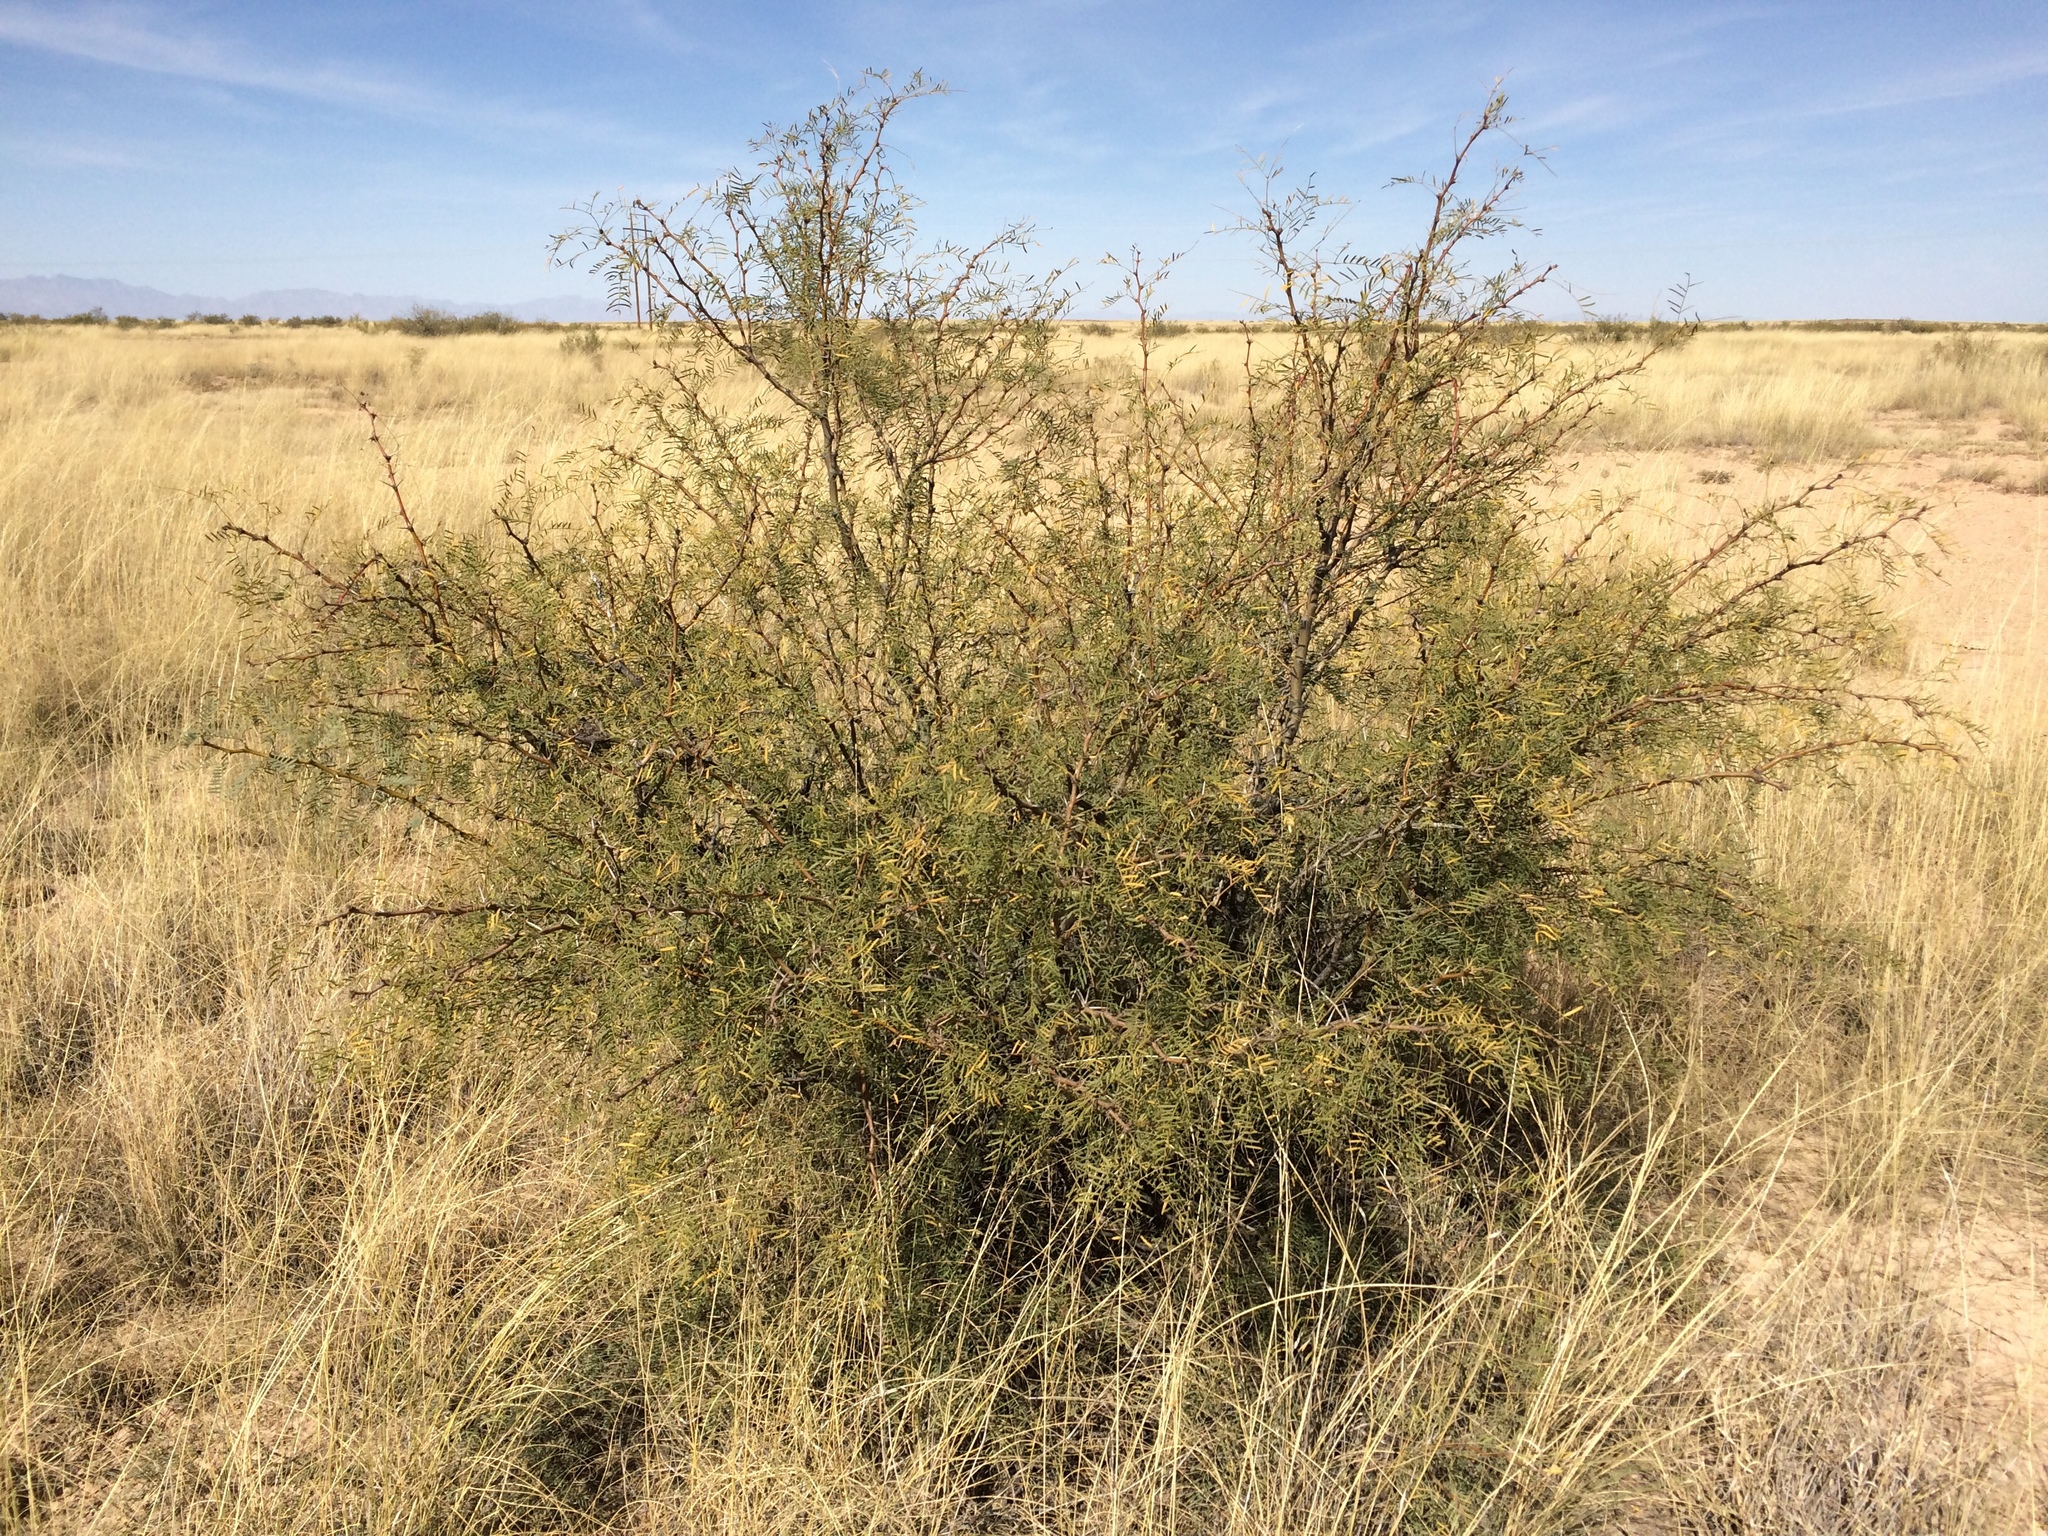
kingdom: Plantae
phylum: Tracheophyta
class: Magnoliopsida
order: Fabales
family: Fabaceae
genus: Prosopis
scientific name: Prosopis glandulosa
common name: Honey mesquite
